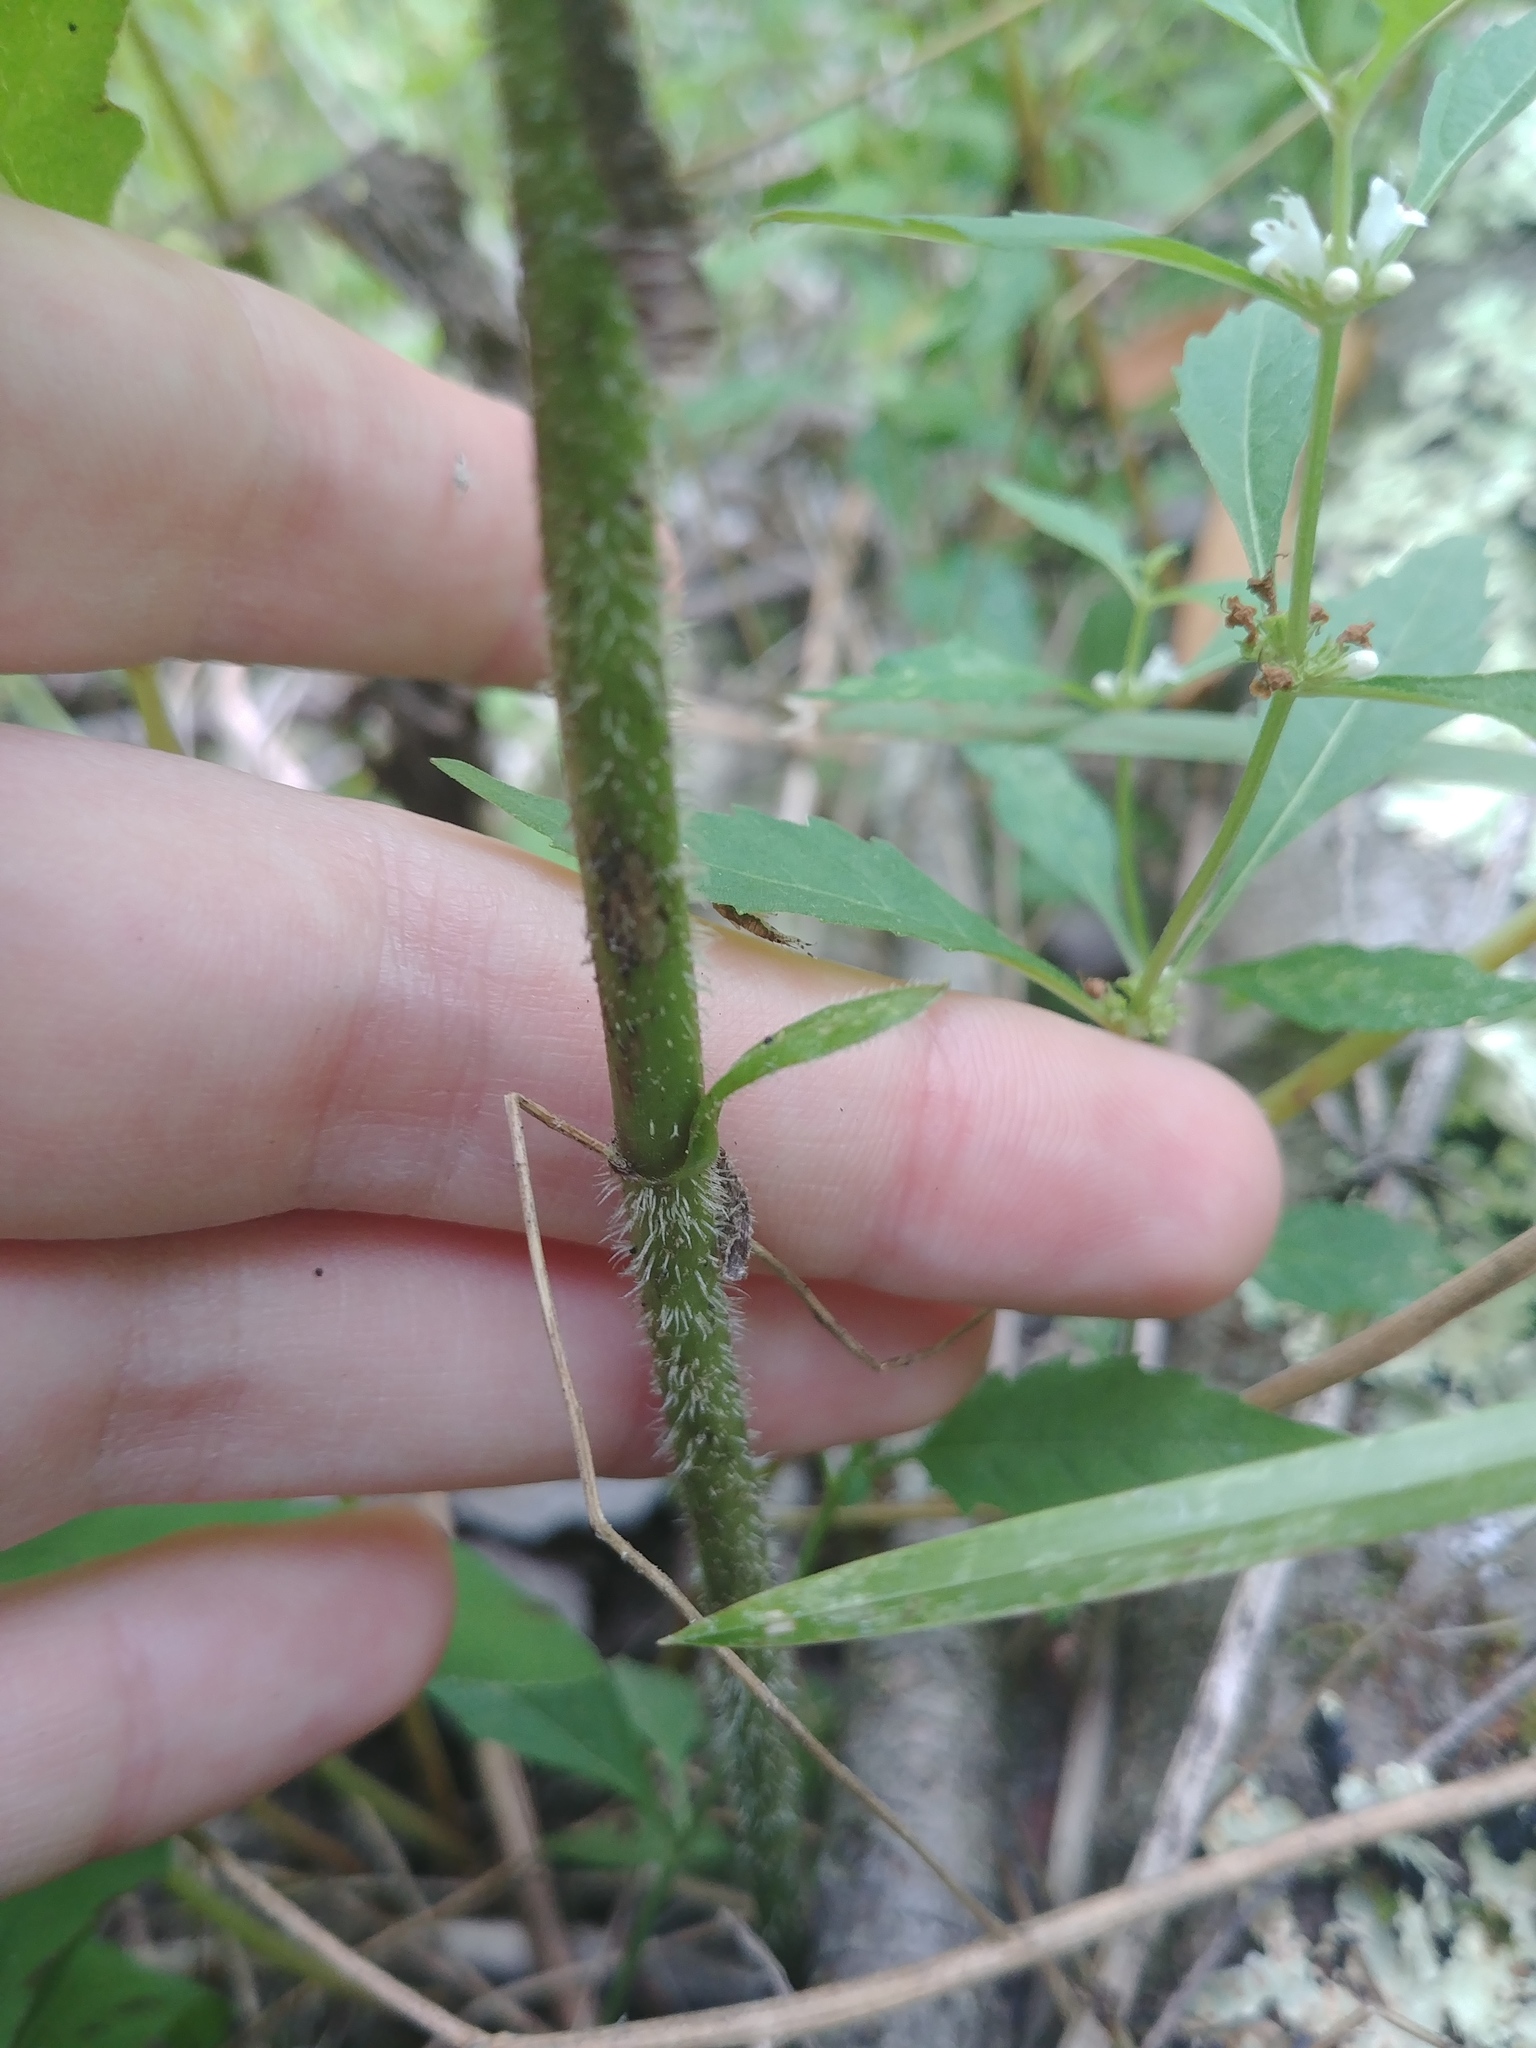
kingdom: Plantae
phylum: Tracheophyta
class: Magnoliopsida
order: Asterales
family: Asteraceae
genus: Eutrochium
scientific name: Eutrochium maculatum
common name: Spotted joe pye weed
